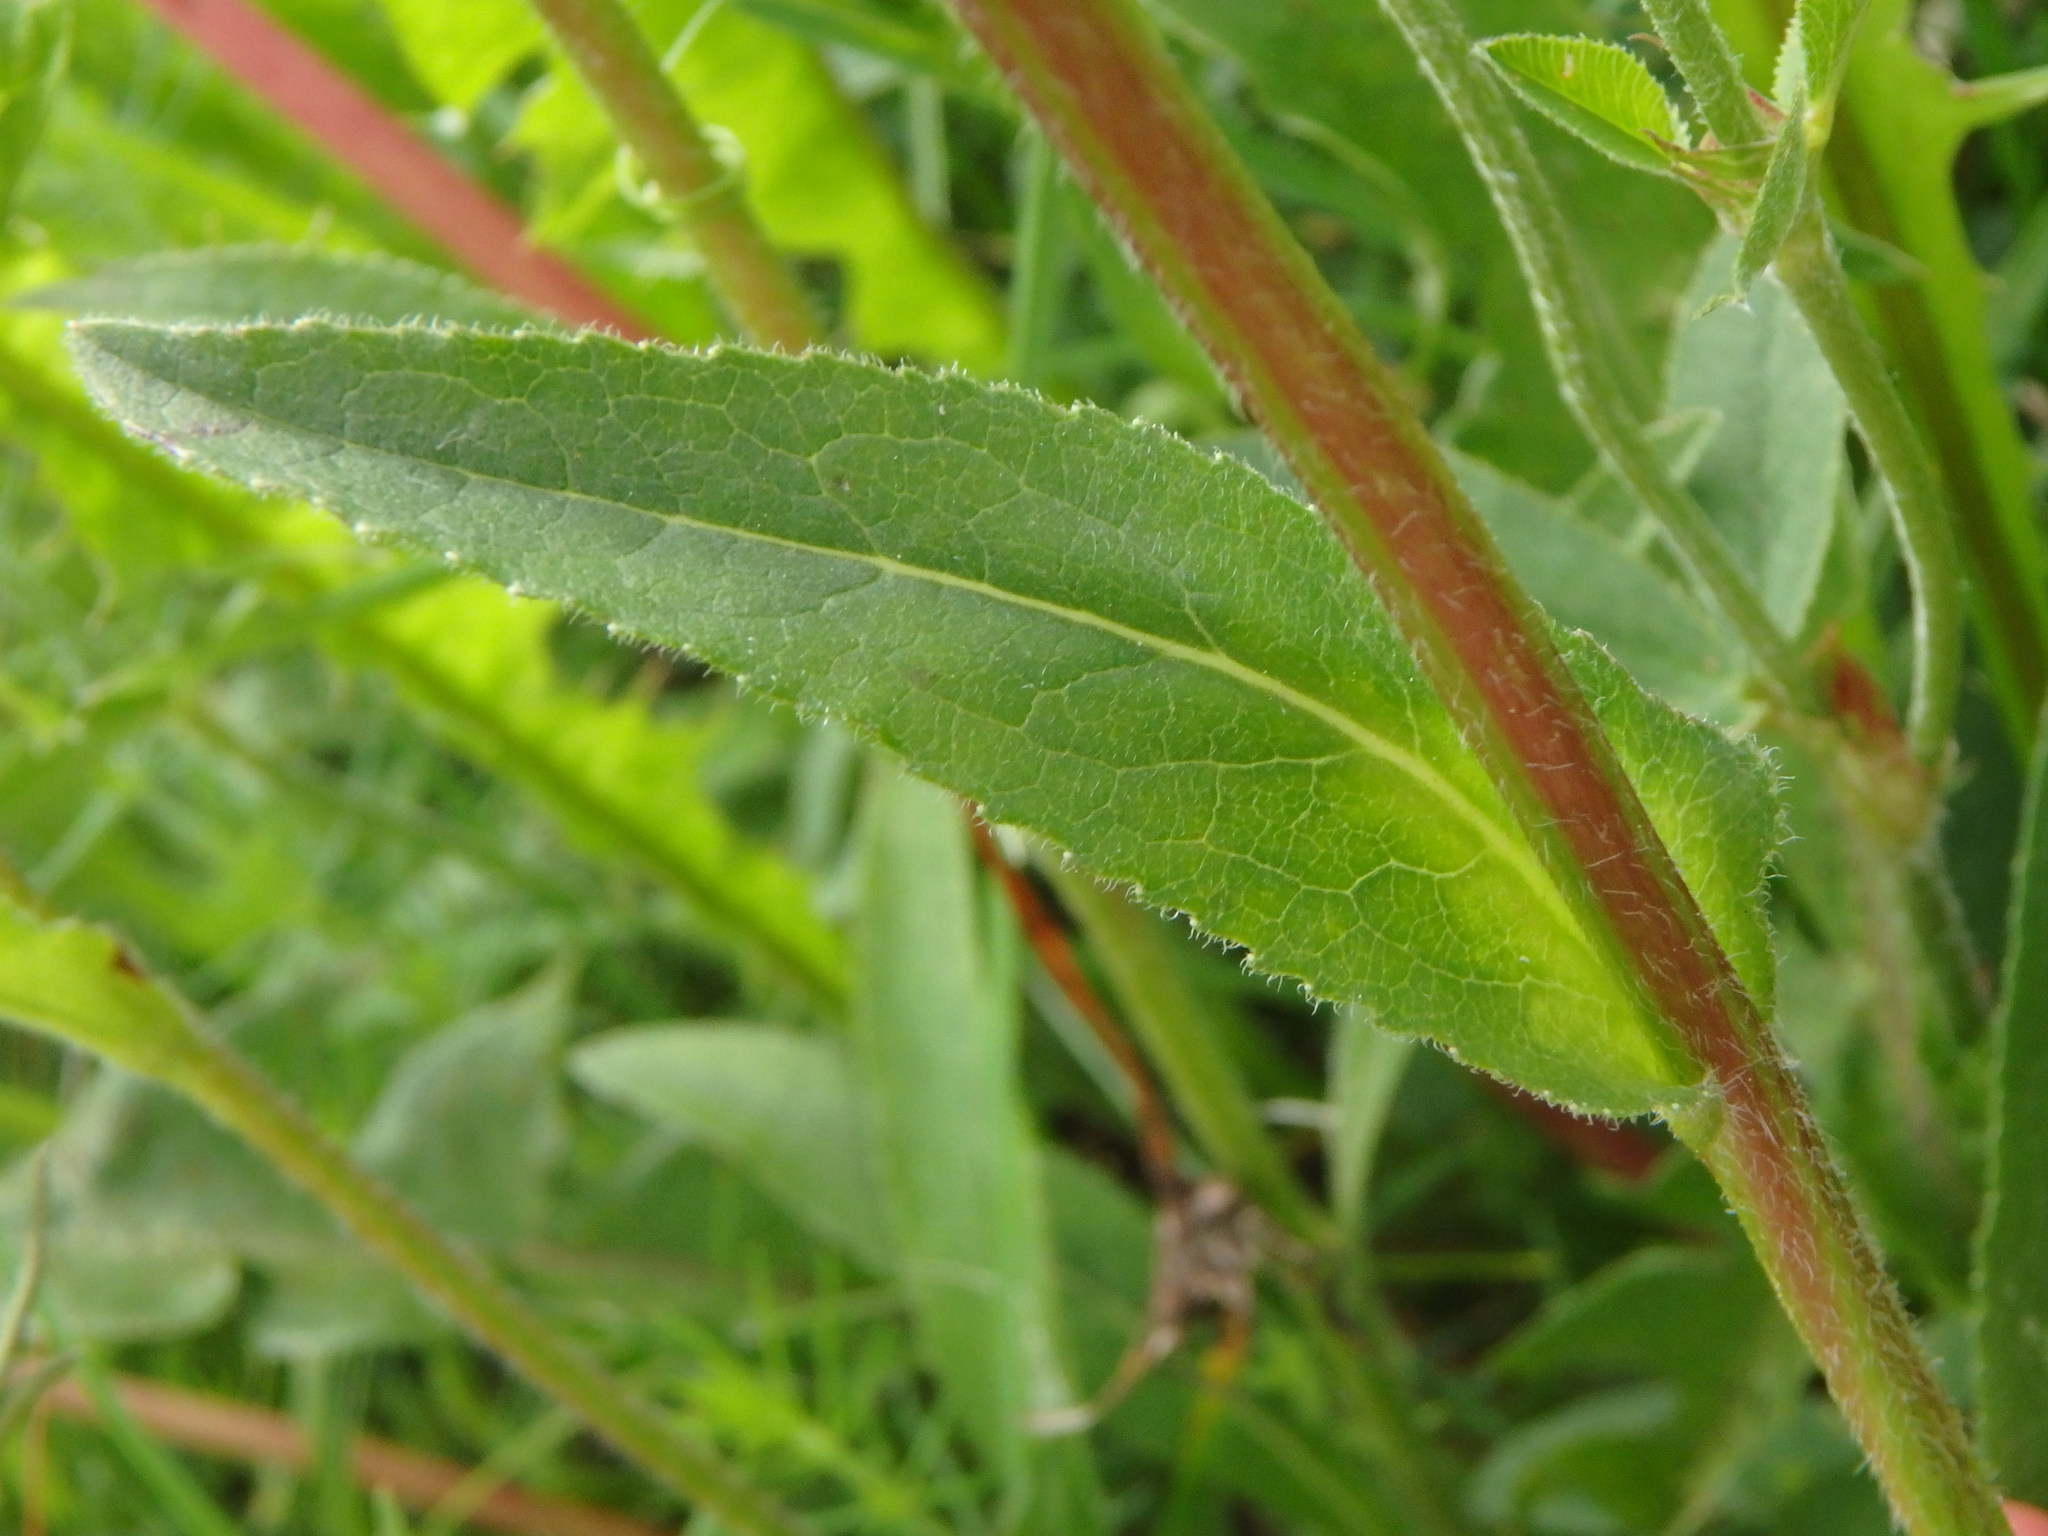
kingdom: Plantae
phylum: Tracheophyta
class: Magnoliopsida
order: Asterales
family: Campanulaceae
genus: Campanula
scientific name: Campanula glomerata
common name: Clustered bellflower
